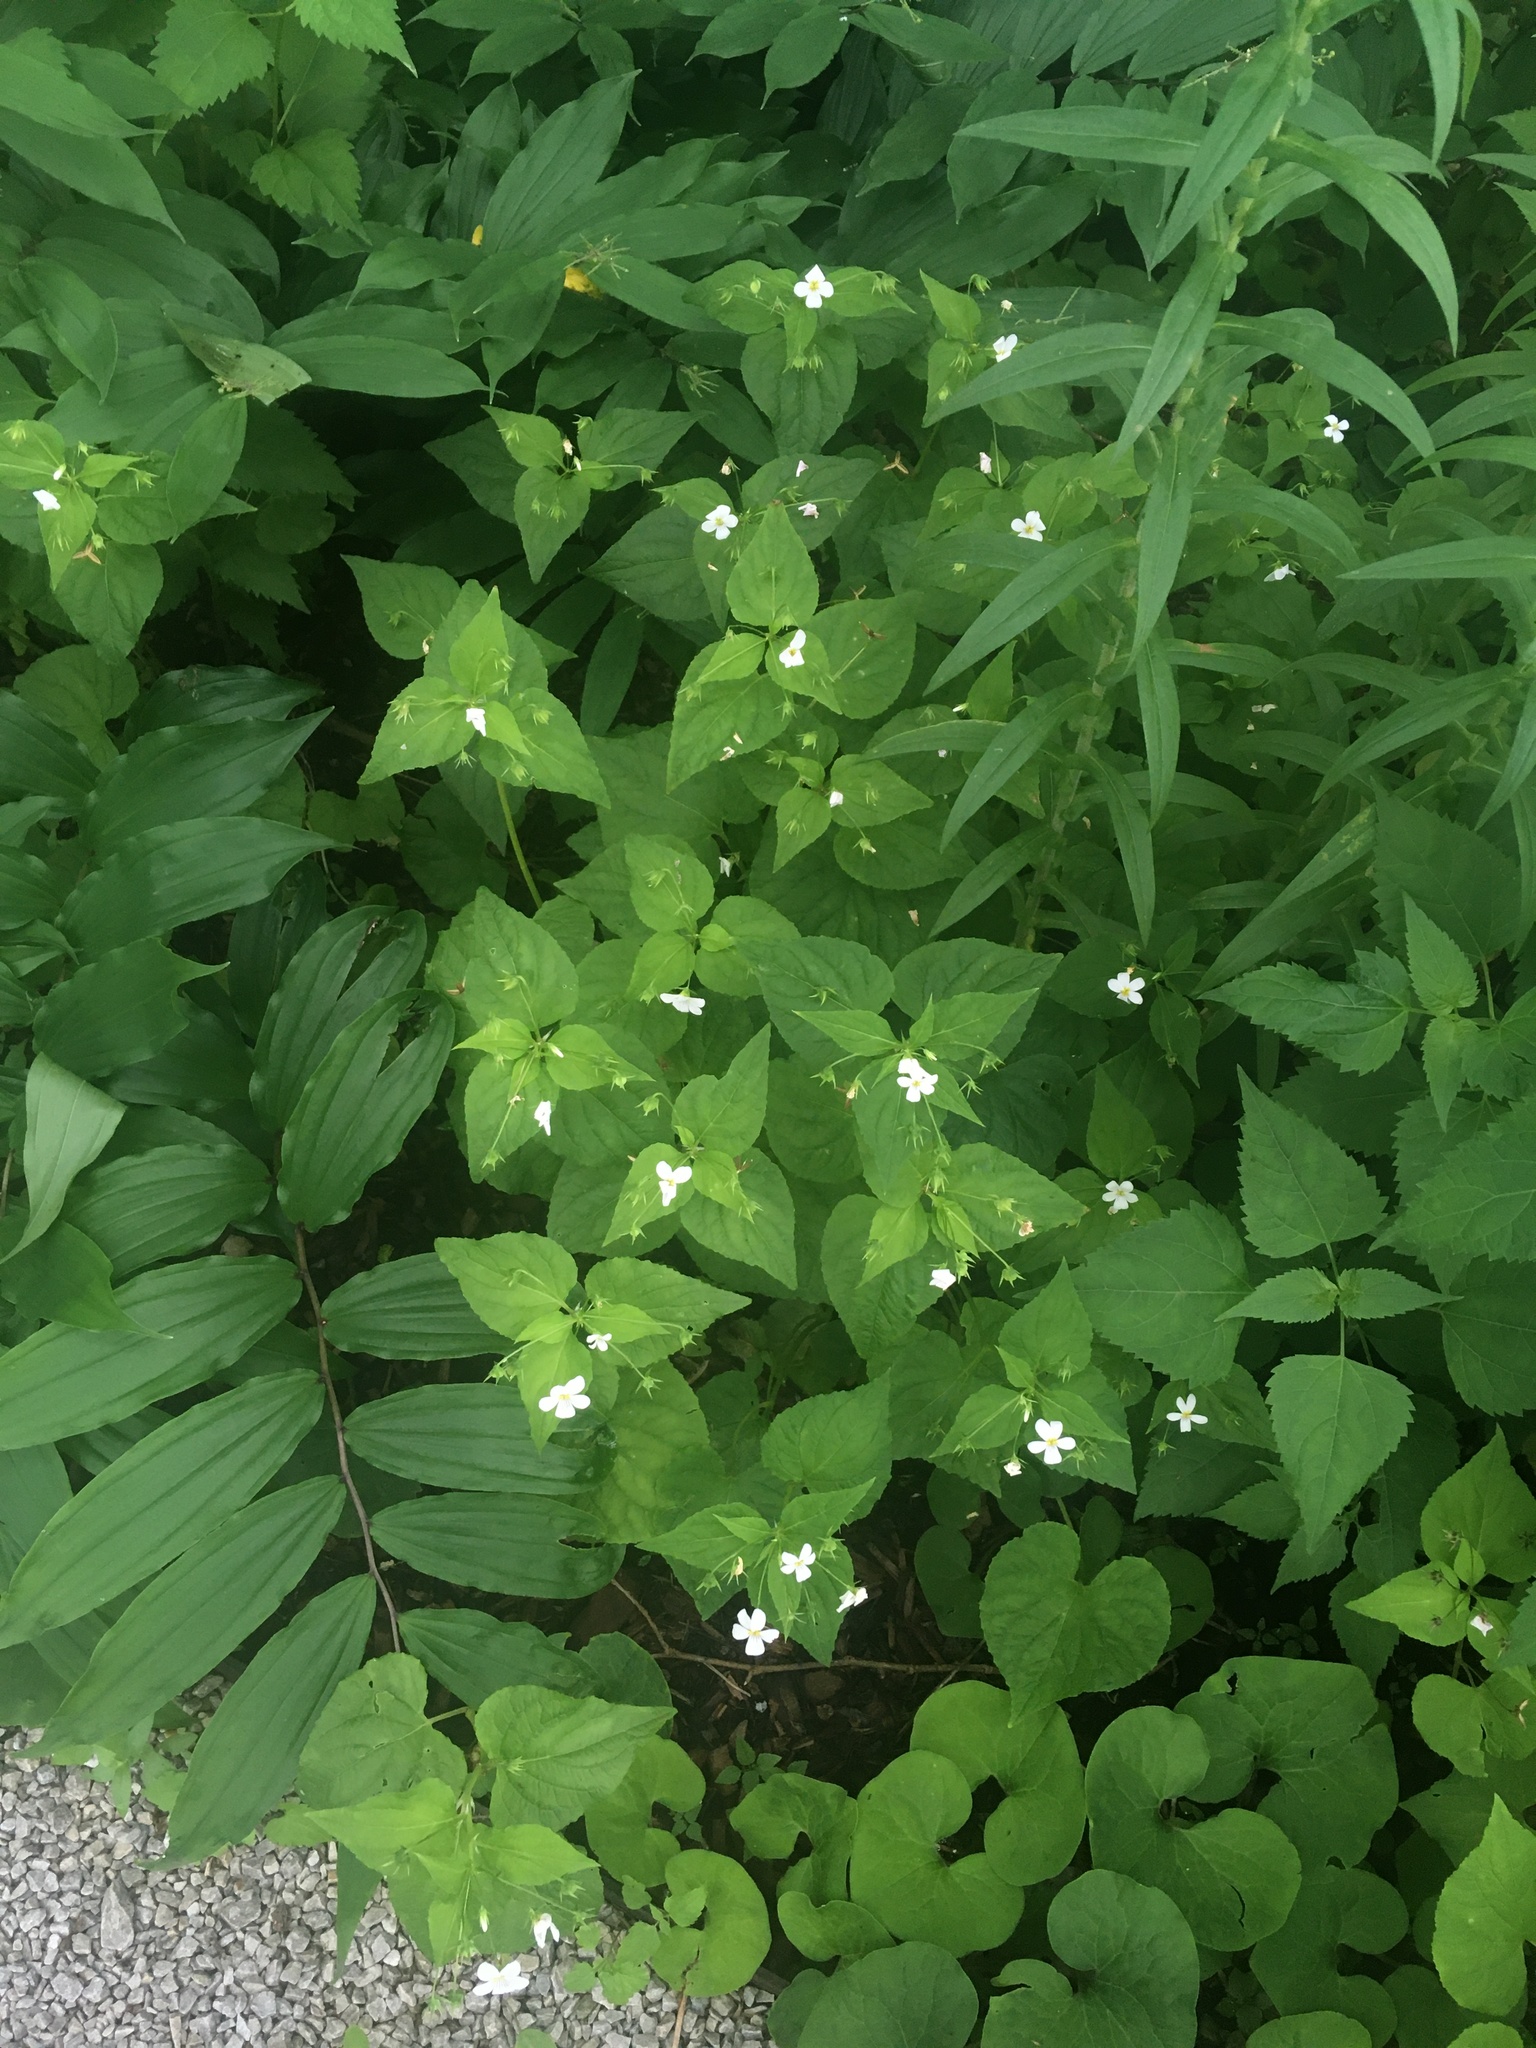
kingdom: Plantae
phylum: Tracheophyta
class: Magnoliopsida
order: Malpighiales
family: Violaceae
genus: Viola
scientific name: Viola canadensis
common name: Canada violet
